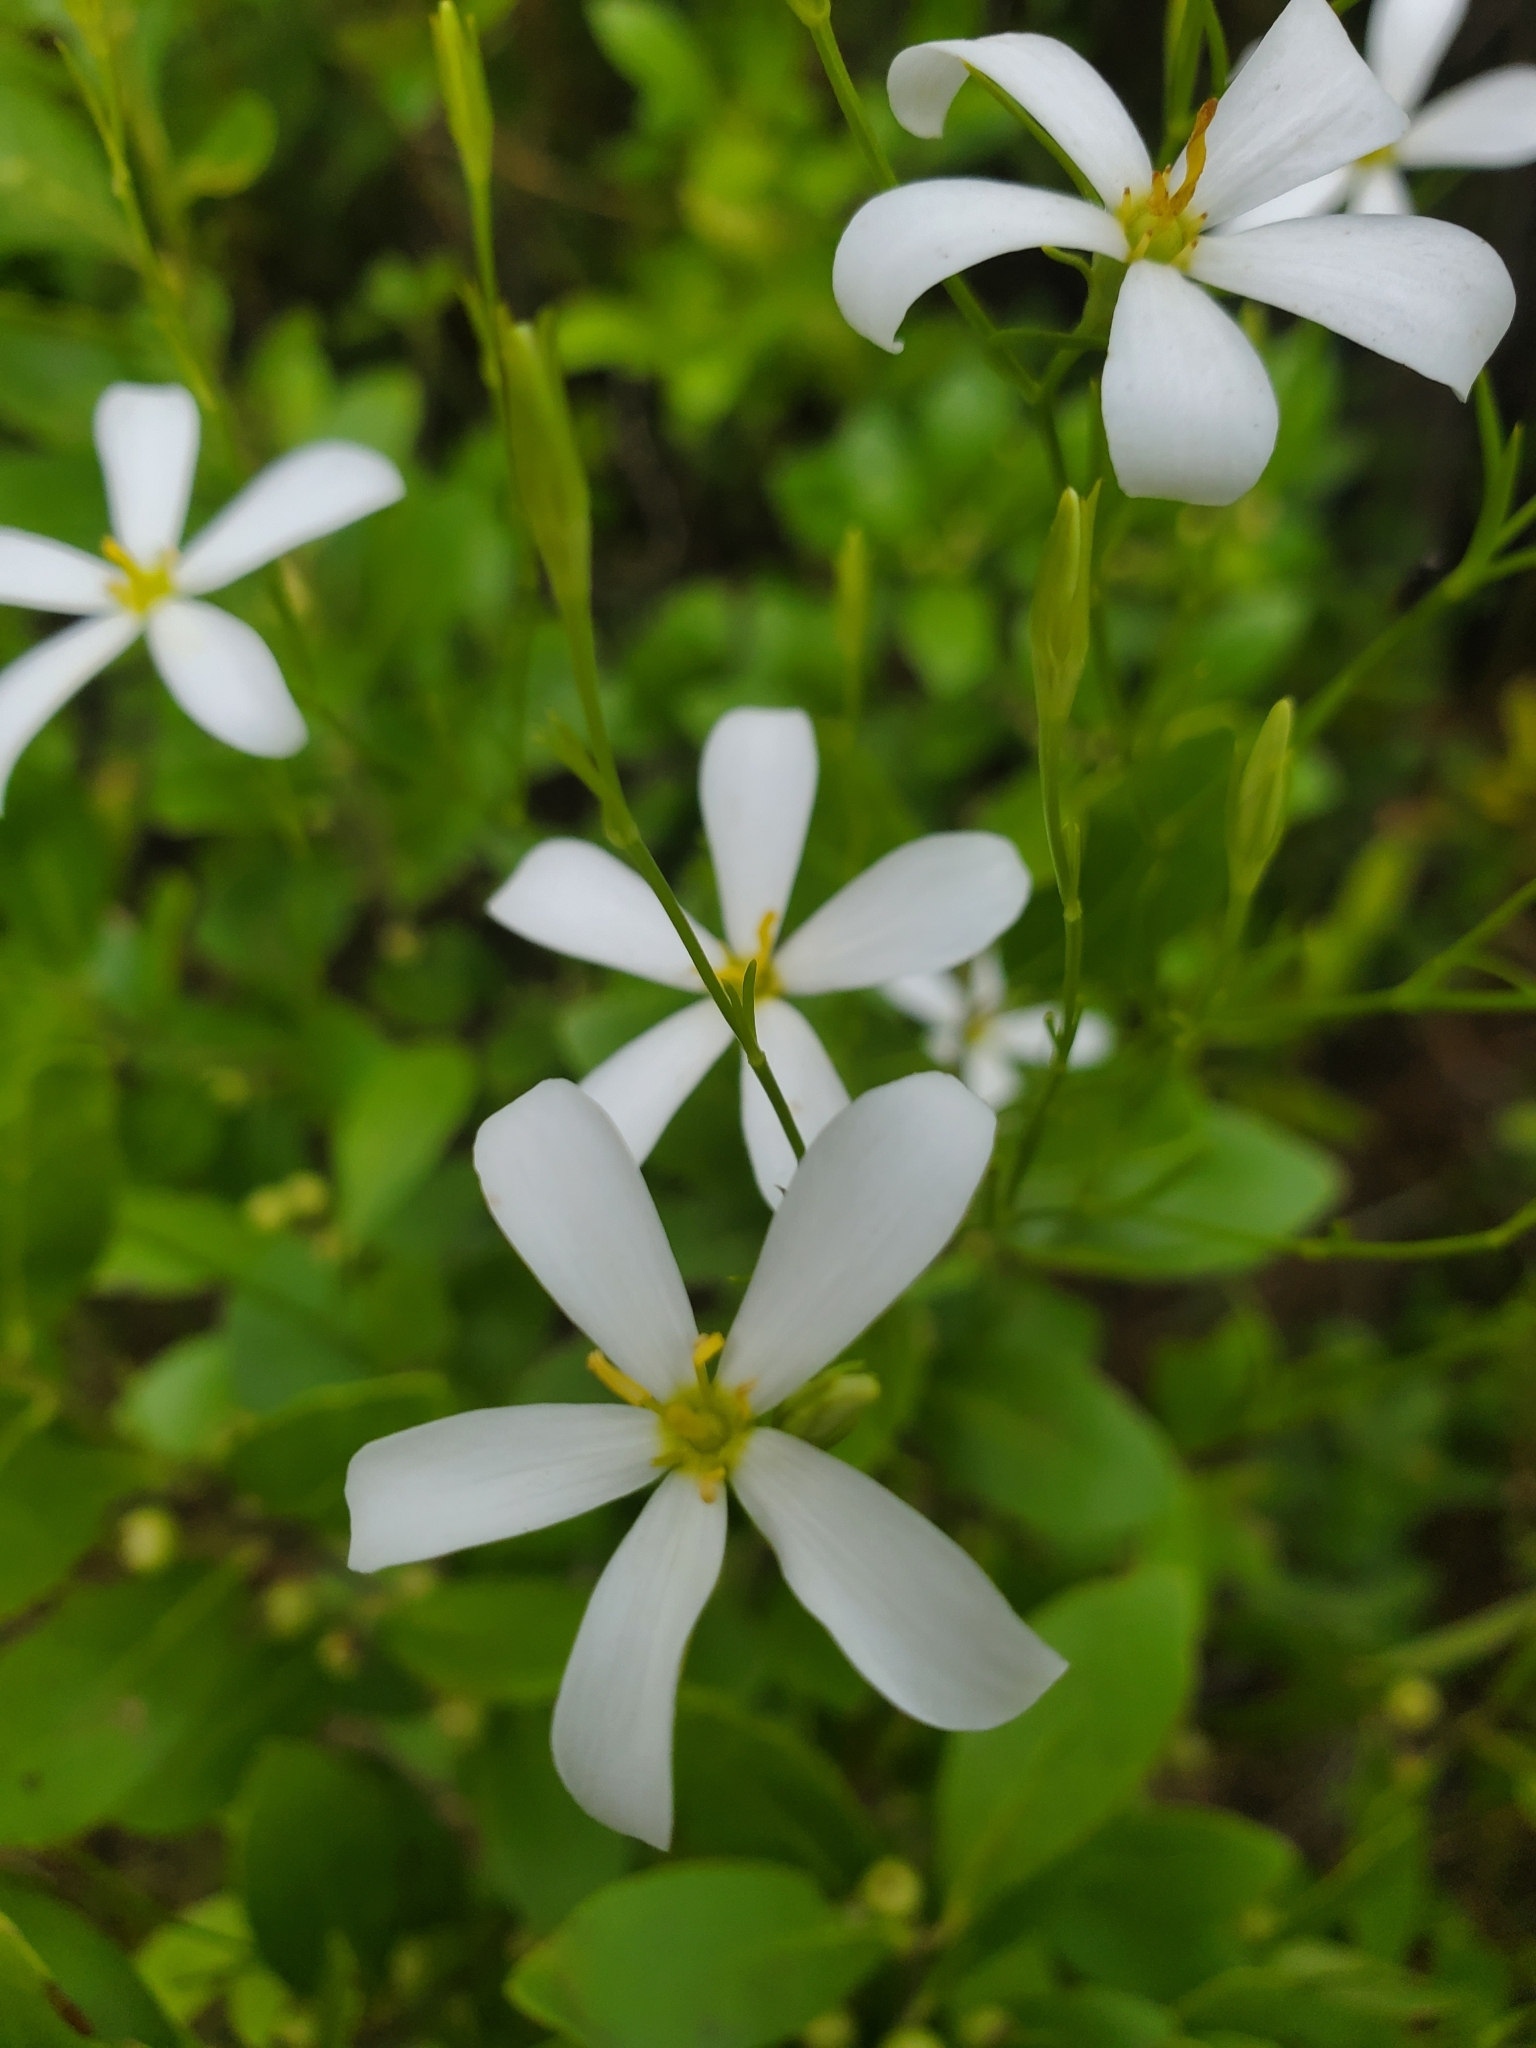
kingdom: Plantae
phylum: Tracheophyta
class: Magnoliopsida
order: Gentianales
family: Gentianaceae
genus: Sabatia
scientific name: Sabatia brevifolia
